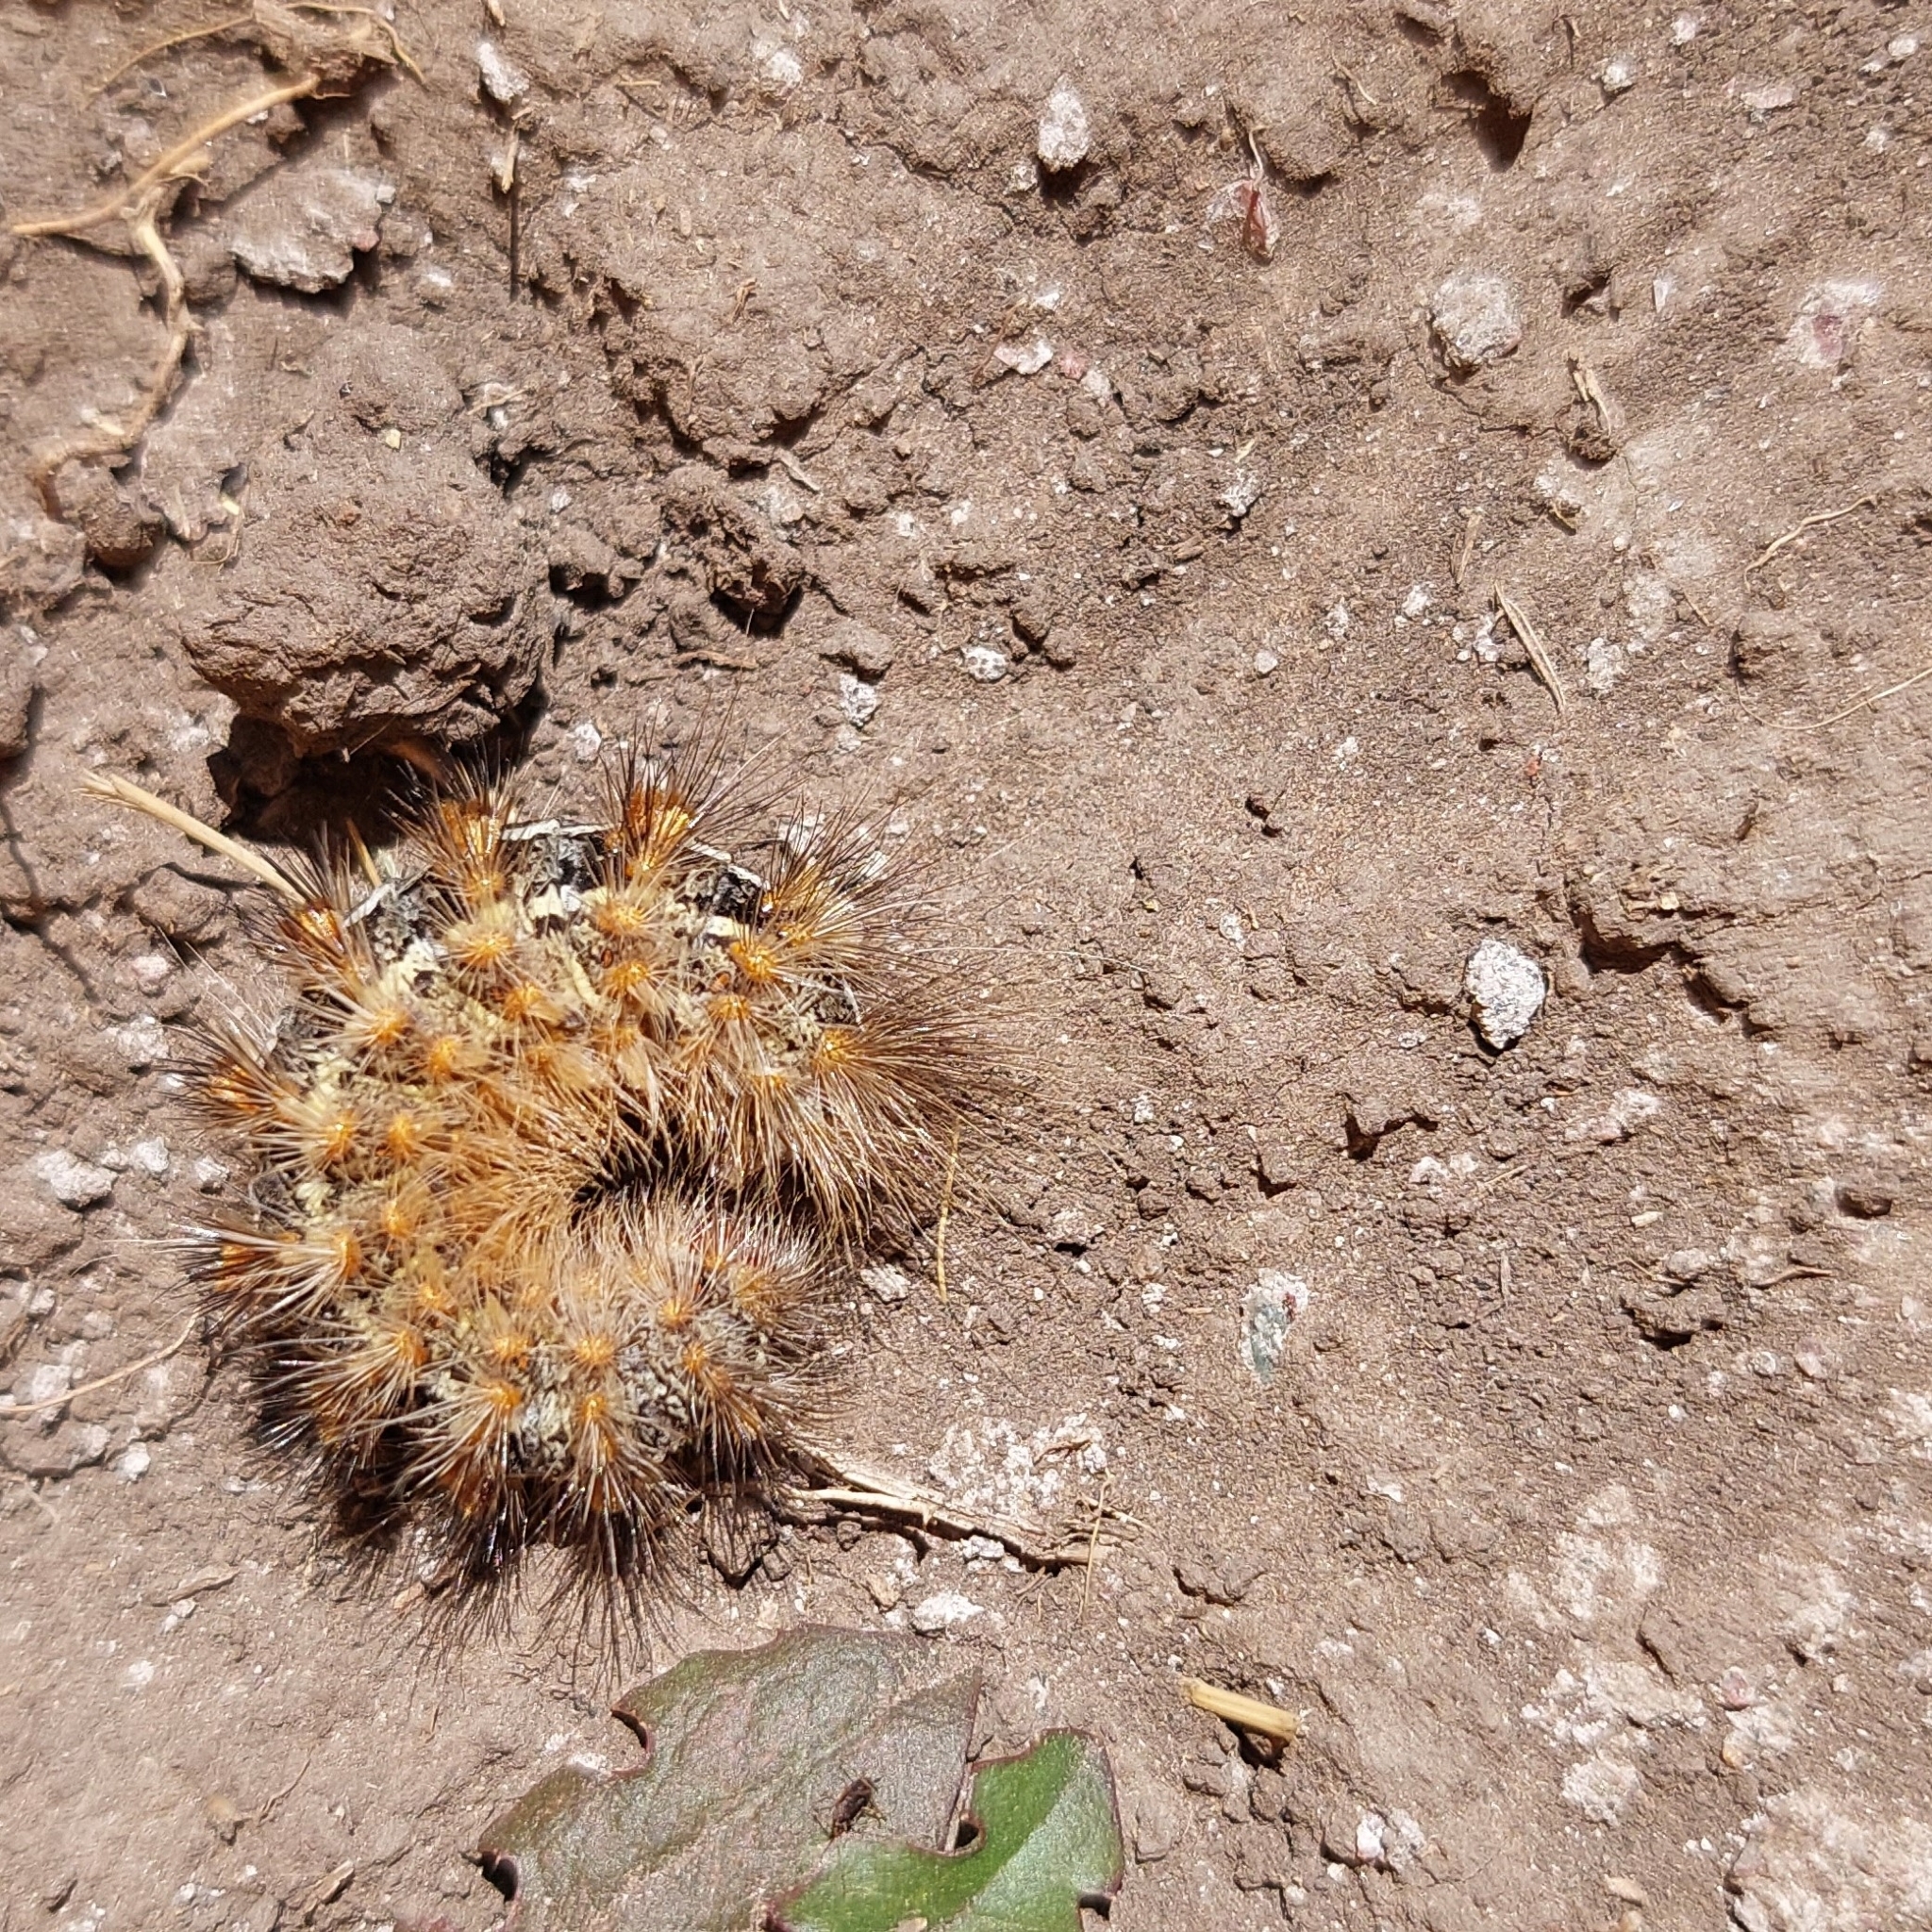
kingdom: Animalia
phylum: Arthropoda
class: Insecta
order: Lepidoptera
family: Erebidae
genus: Paracles
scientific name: Paracles deserticola
